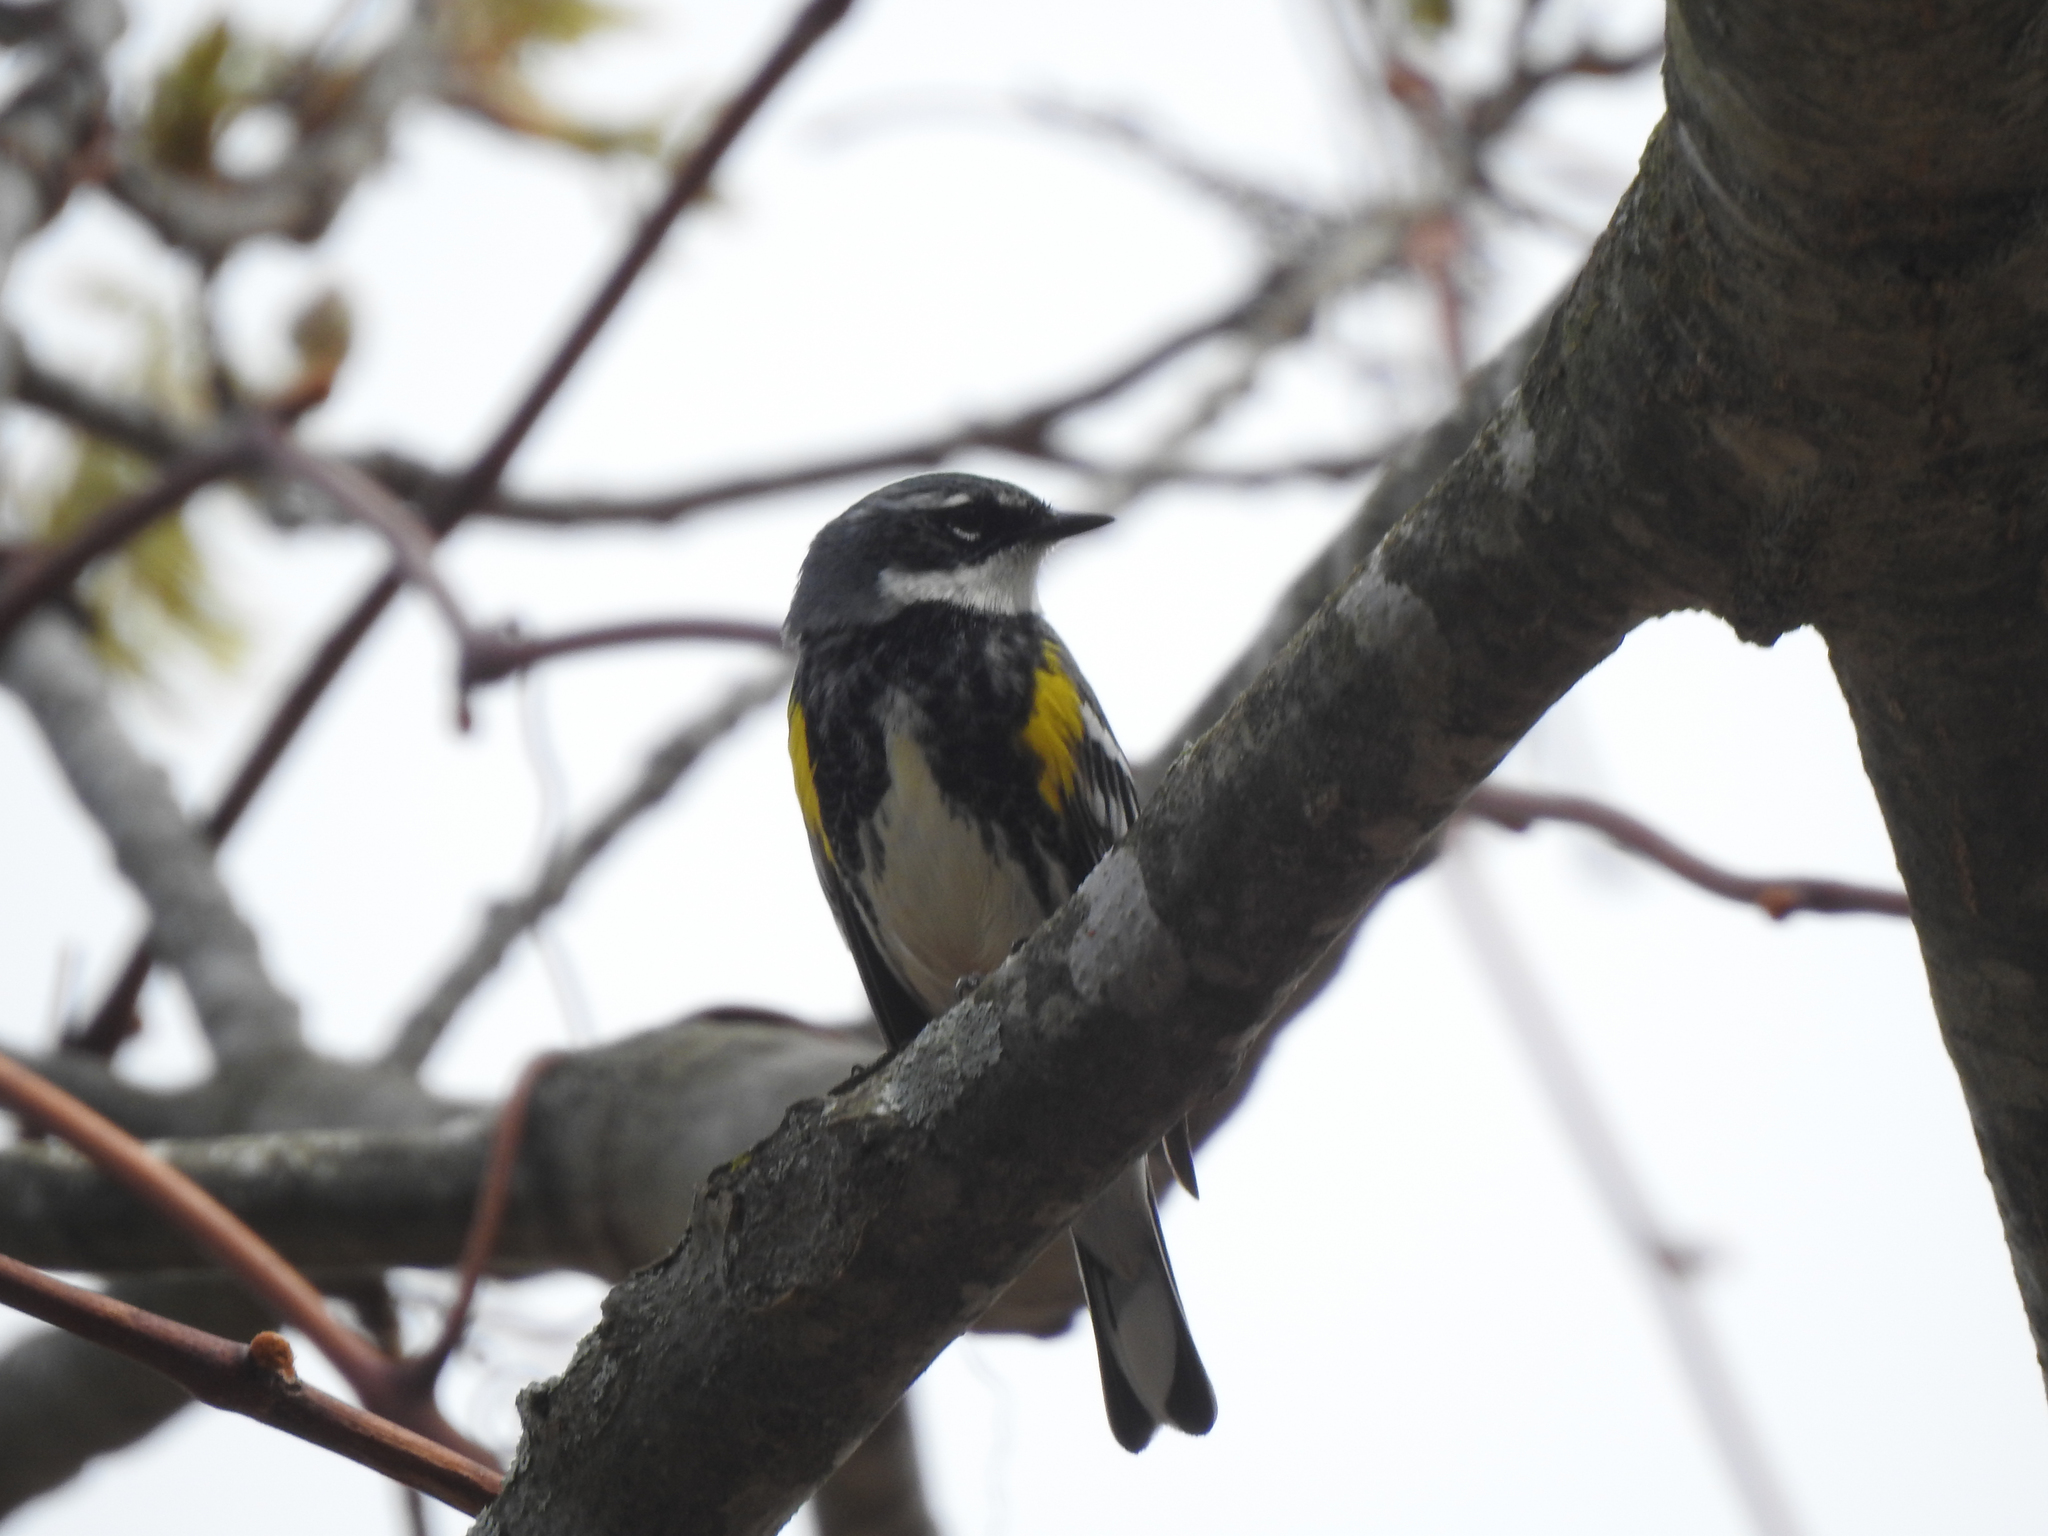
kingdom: Animalia
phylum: Chordata
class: Aves
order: Passeriformes
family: Parulidae
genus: Setophaga
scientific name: Setophaga coronata
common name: Myrtle warbler
